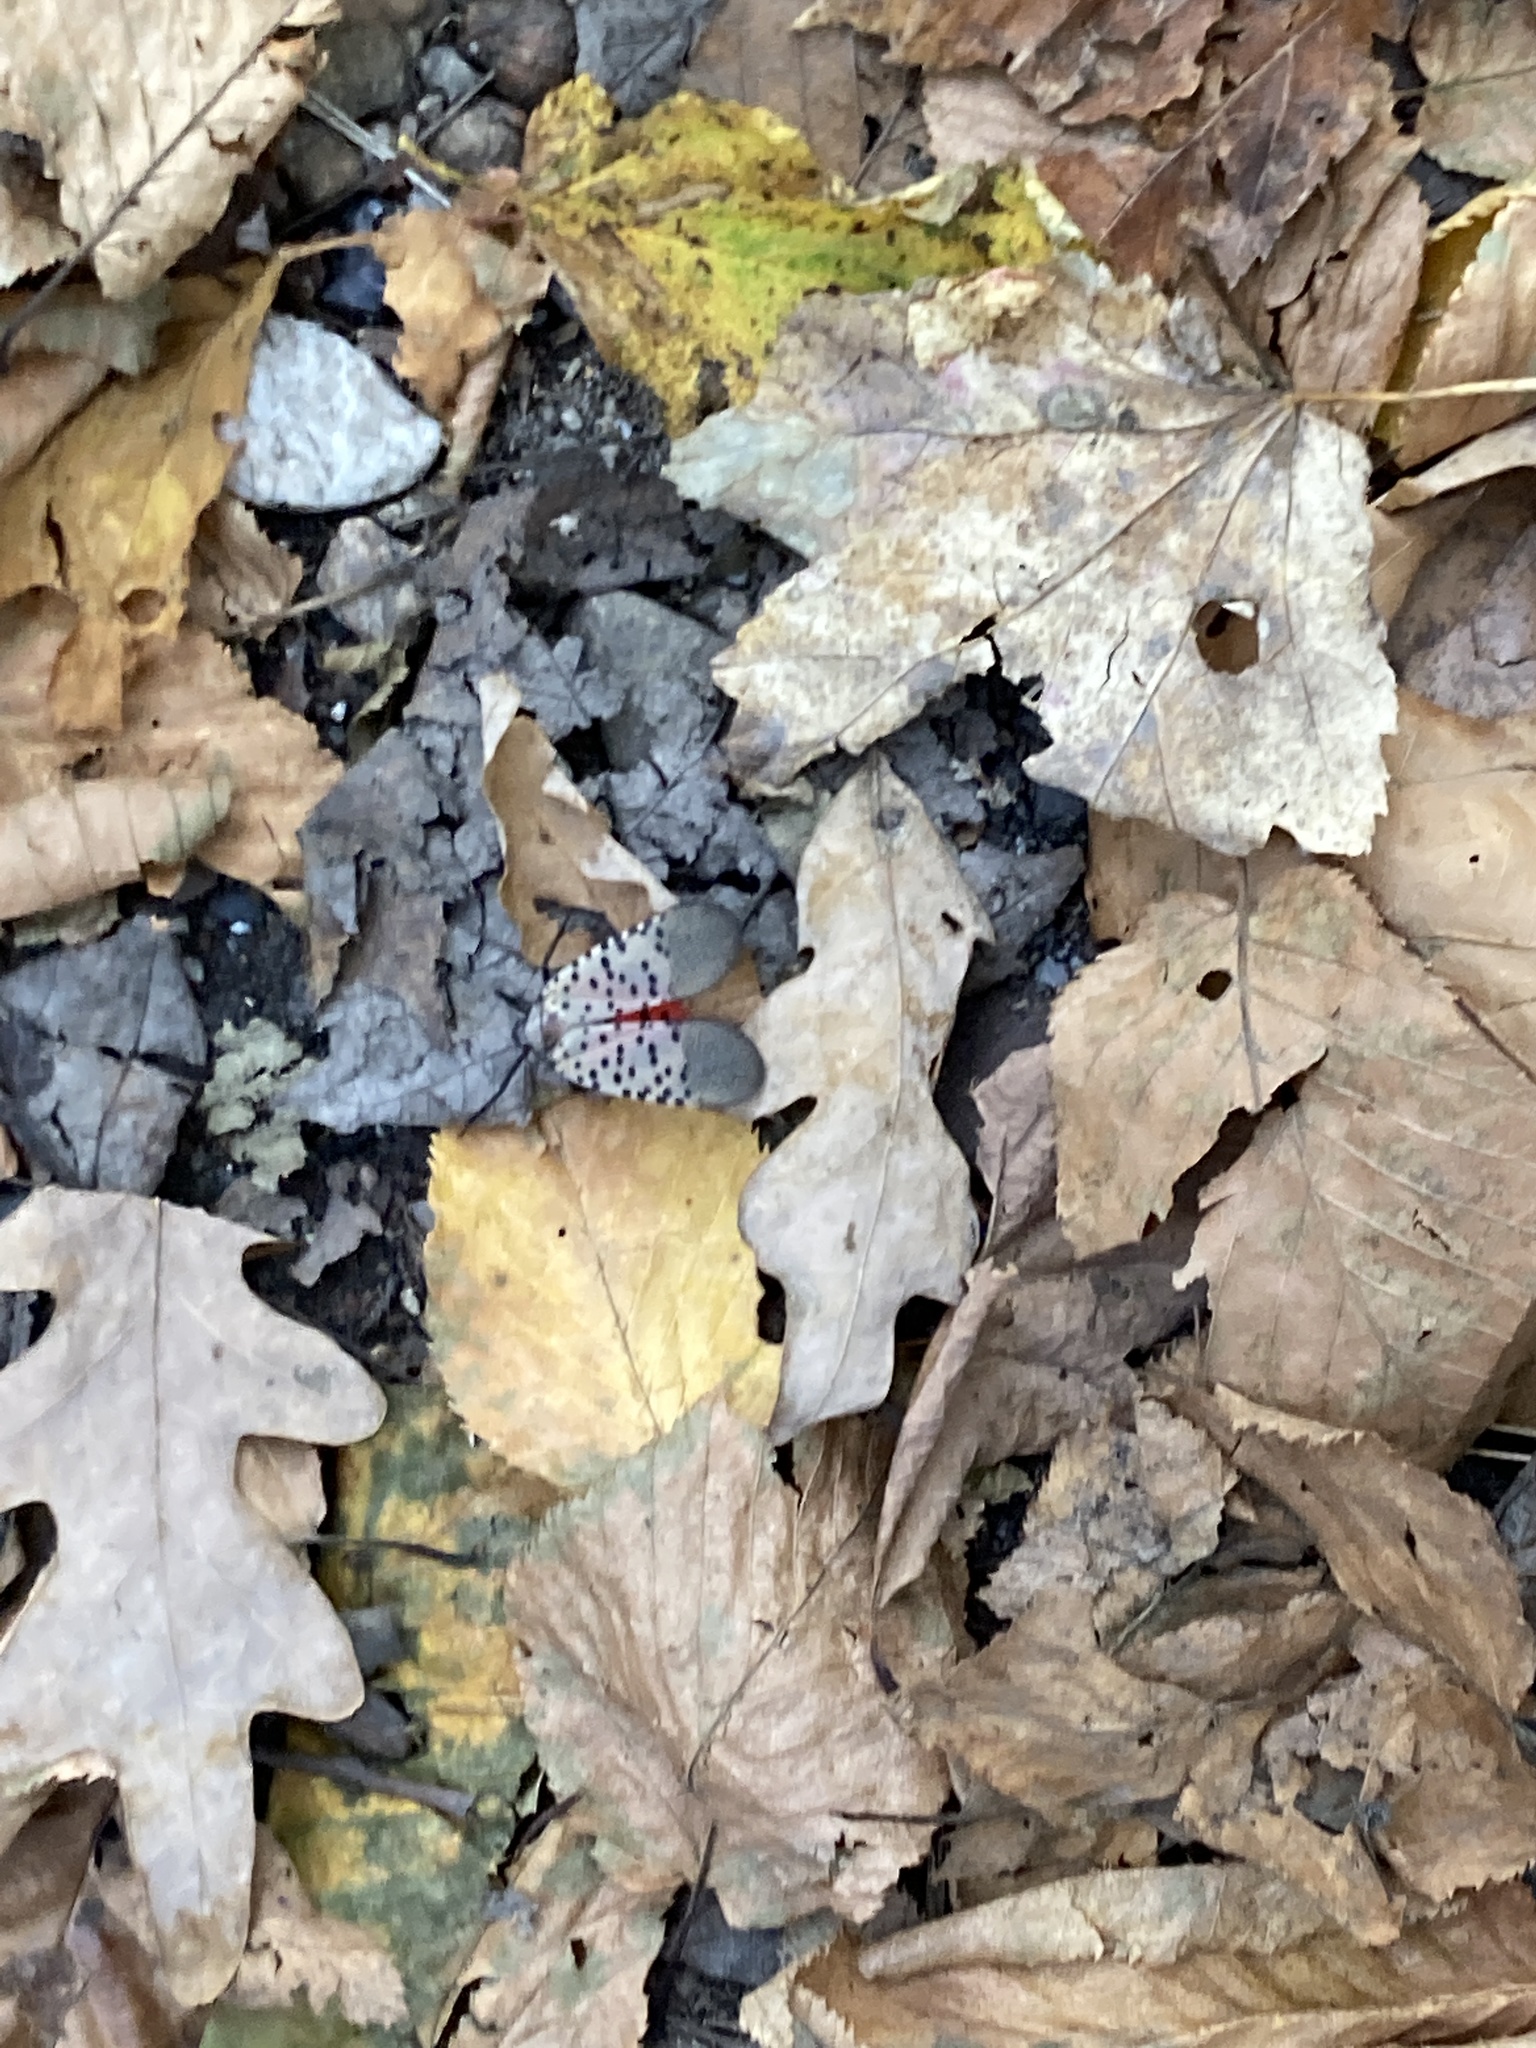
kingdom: Animalia
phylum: Arthropoda
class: Insecta
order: Hemiptera
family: Fulgoridae
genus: Lycorma
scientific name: Lycorma delicatula
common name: Spotted lanternfly
